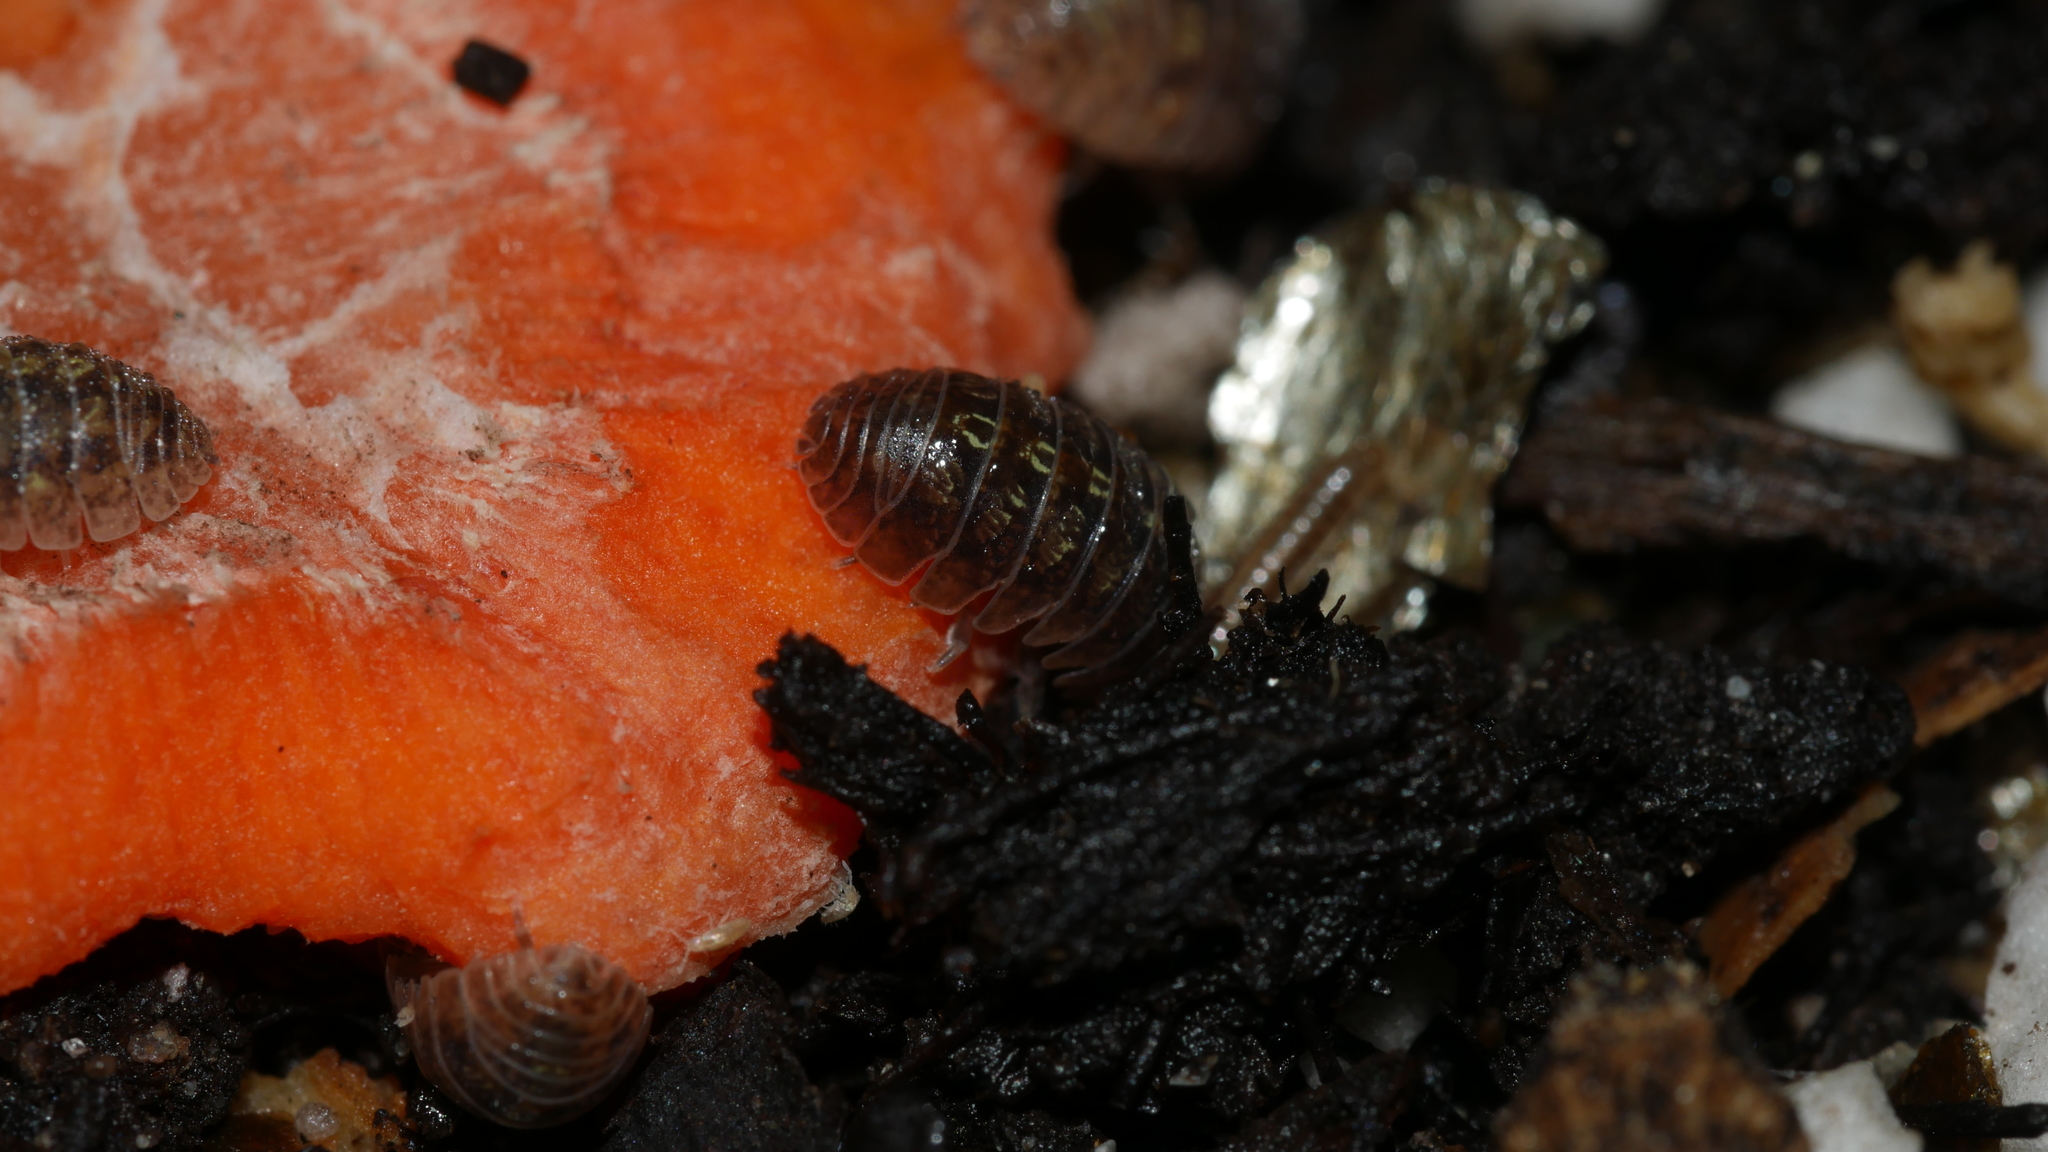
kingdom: Animalia
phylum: Arthropoda
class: Malacostraca
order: Isopoda
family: Armadillidiidae
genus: Armadillidium
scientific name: Armadillidium vulgare
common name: Common pill woodlouse
